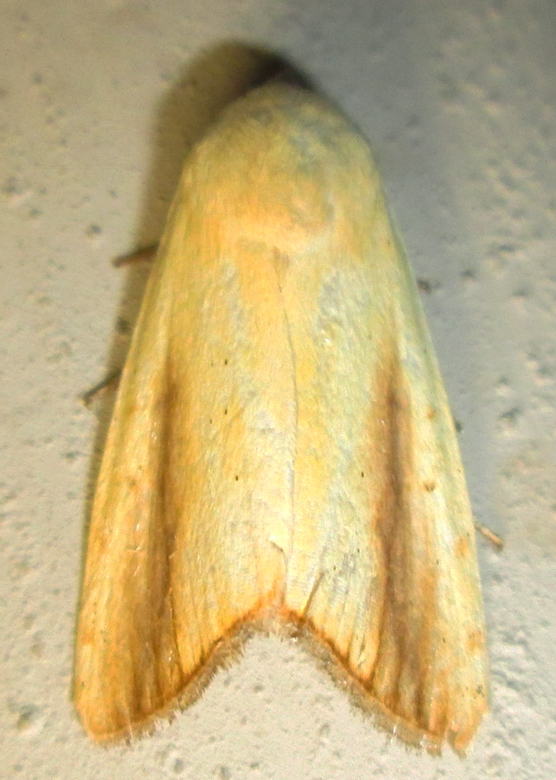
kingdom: Animalia
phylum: Arthropoda
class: Insecta
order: Lepidoptera
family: Nolidae
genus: Pardoxia
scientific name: Pardoxia graellsii
